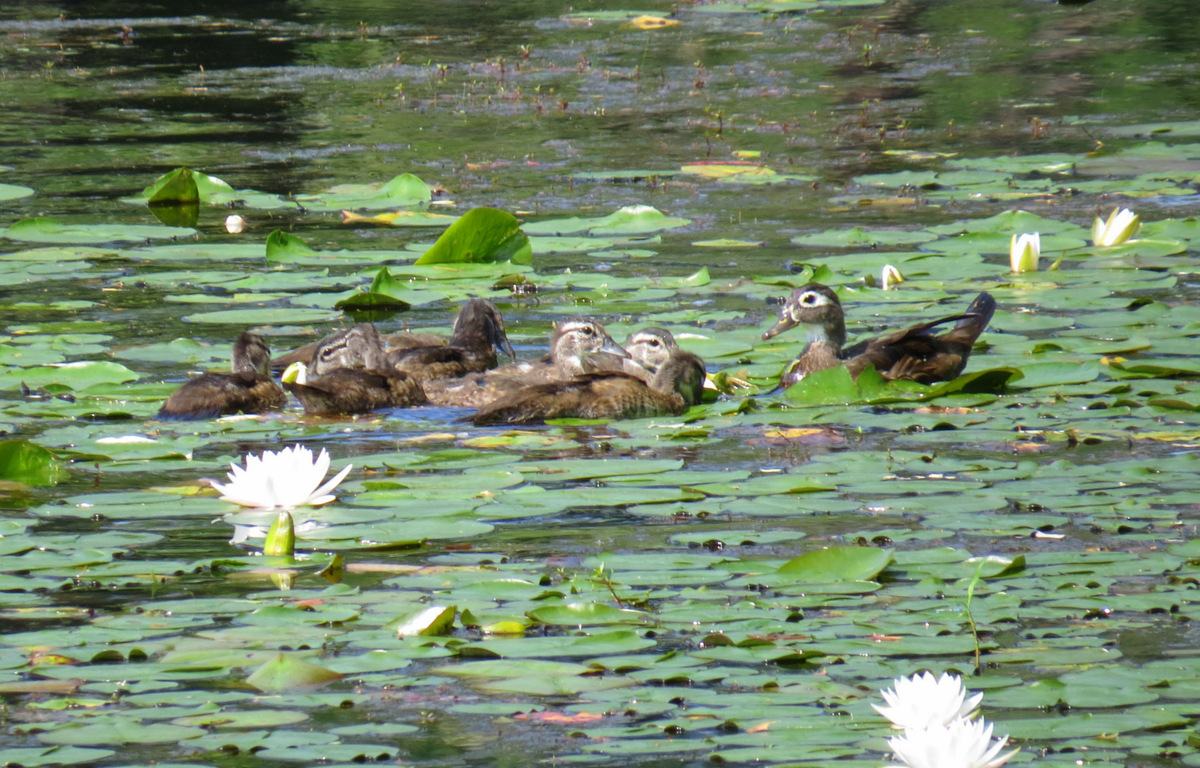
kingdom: Animalia
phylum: Chordata
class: Aves
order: Anseriformes
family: Anatidae
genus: Aix
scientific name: Aix sponsa
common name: Wood duck
